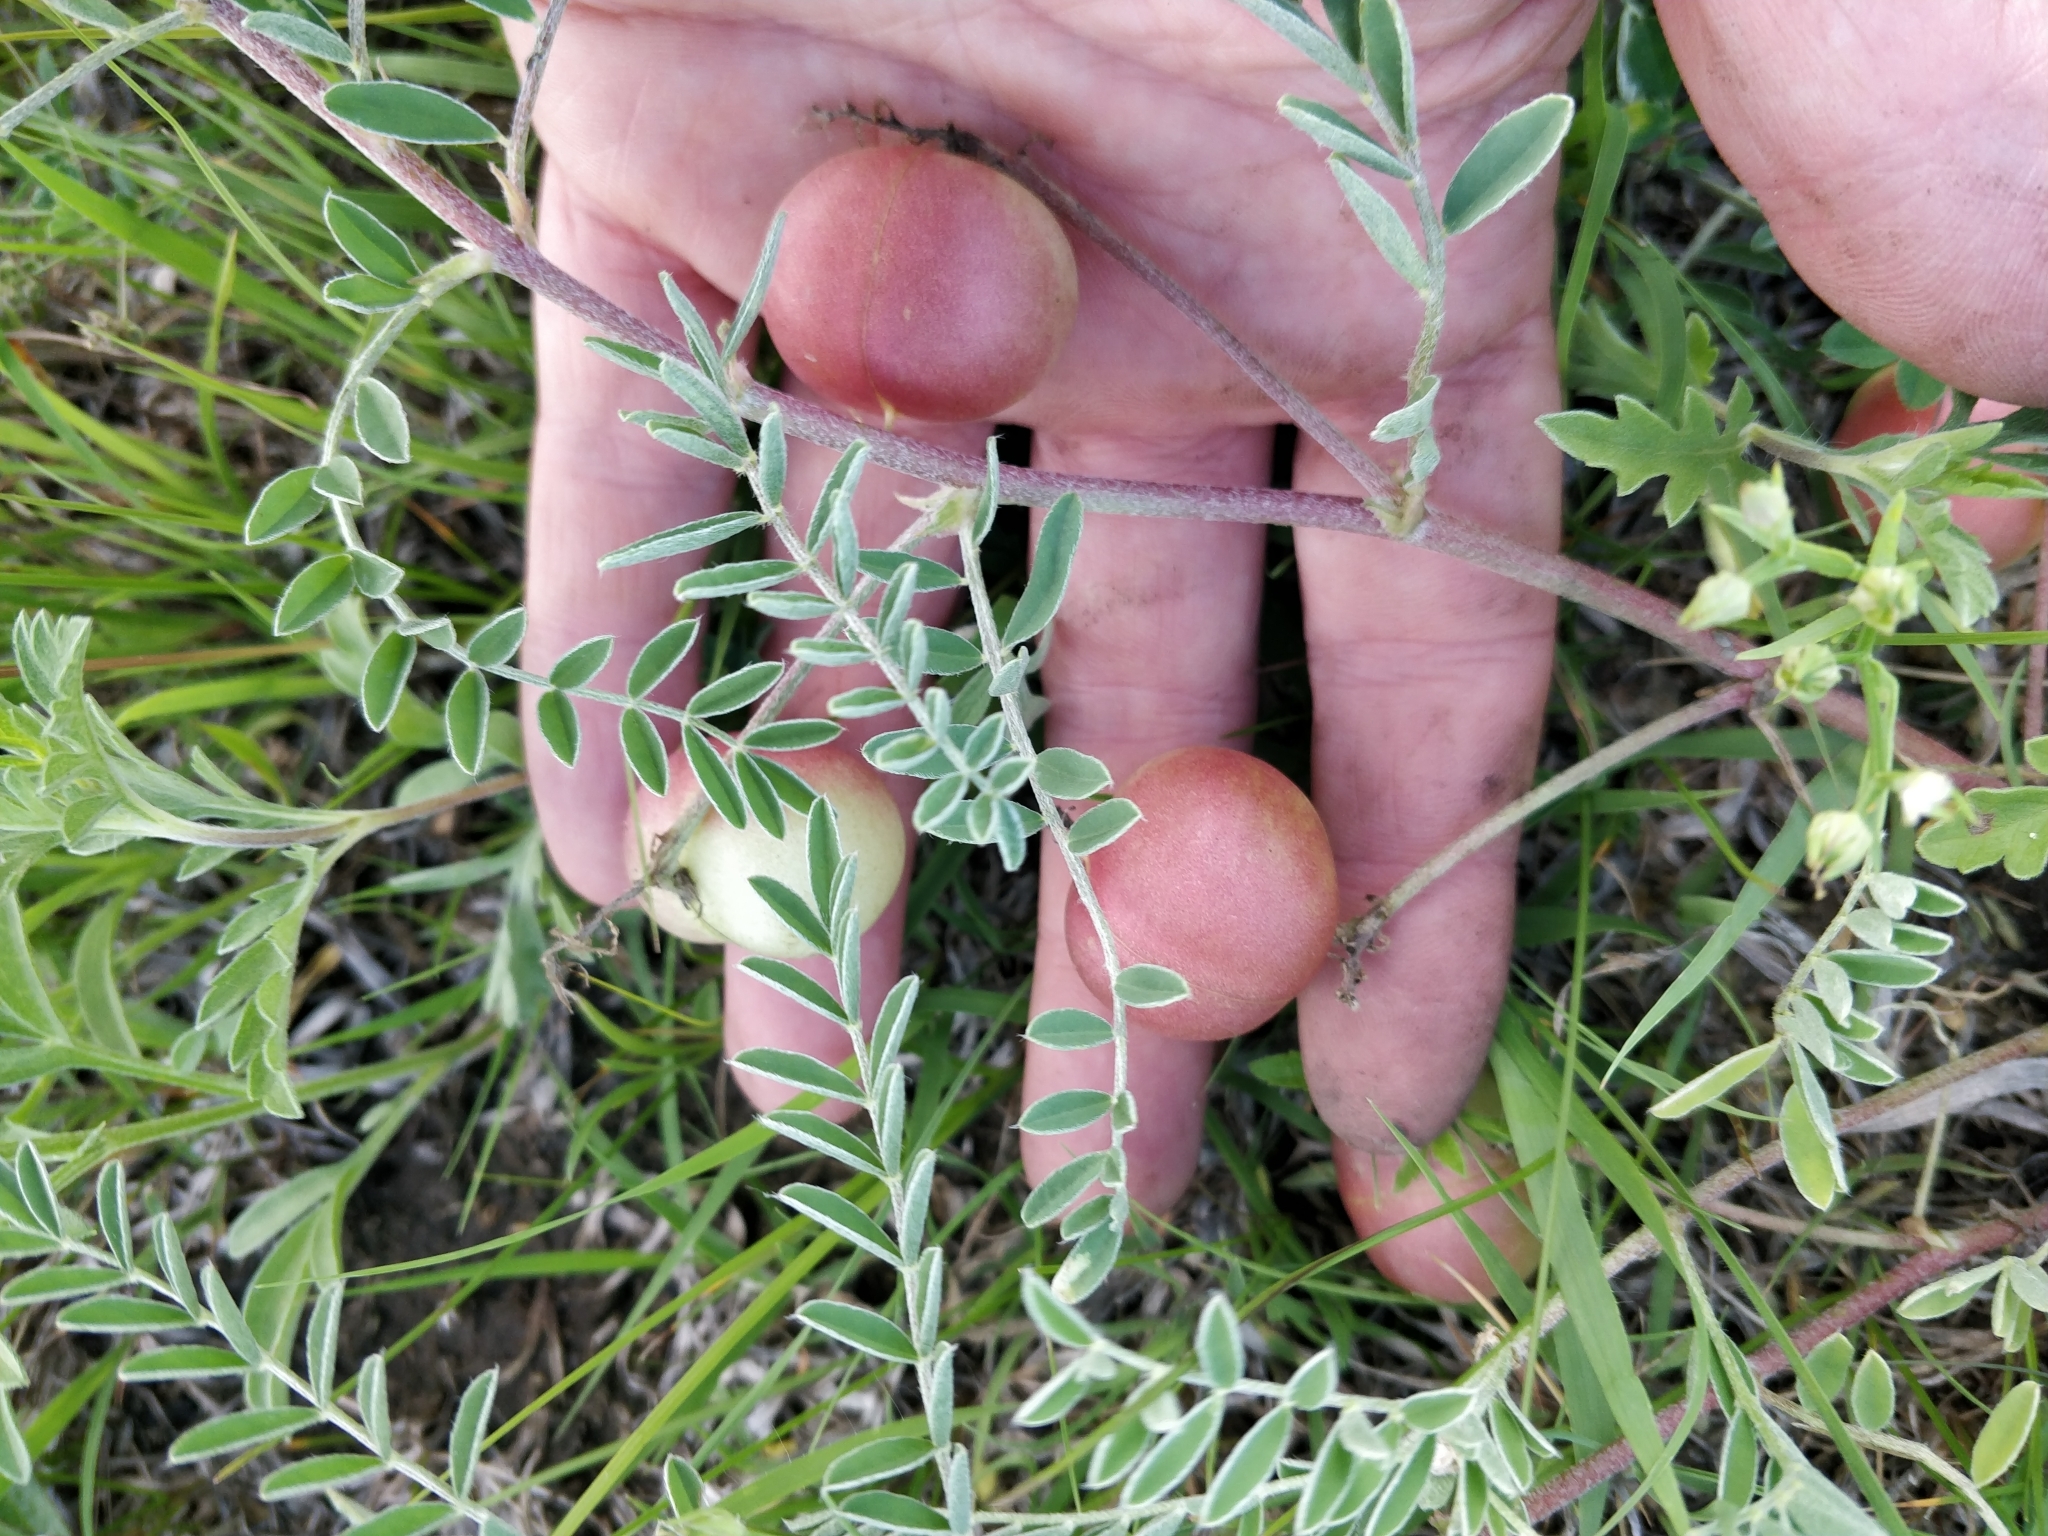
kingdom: Plantae
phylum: Tracheophyta
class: Magnoliopsida
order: Fabales
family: Fabaceae
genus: Astragalus
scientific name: Astragalus crassicarpus
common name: Ground-plum milk-vetch
